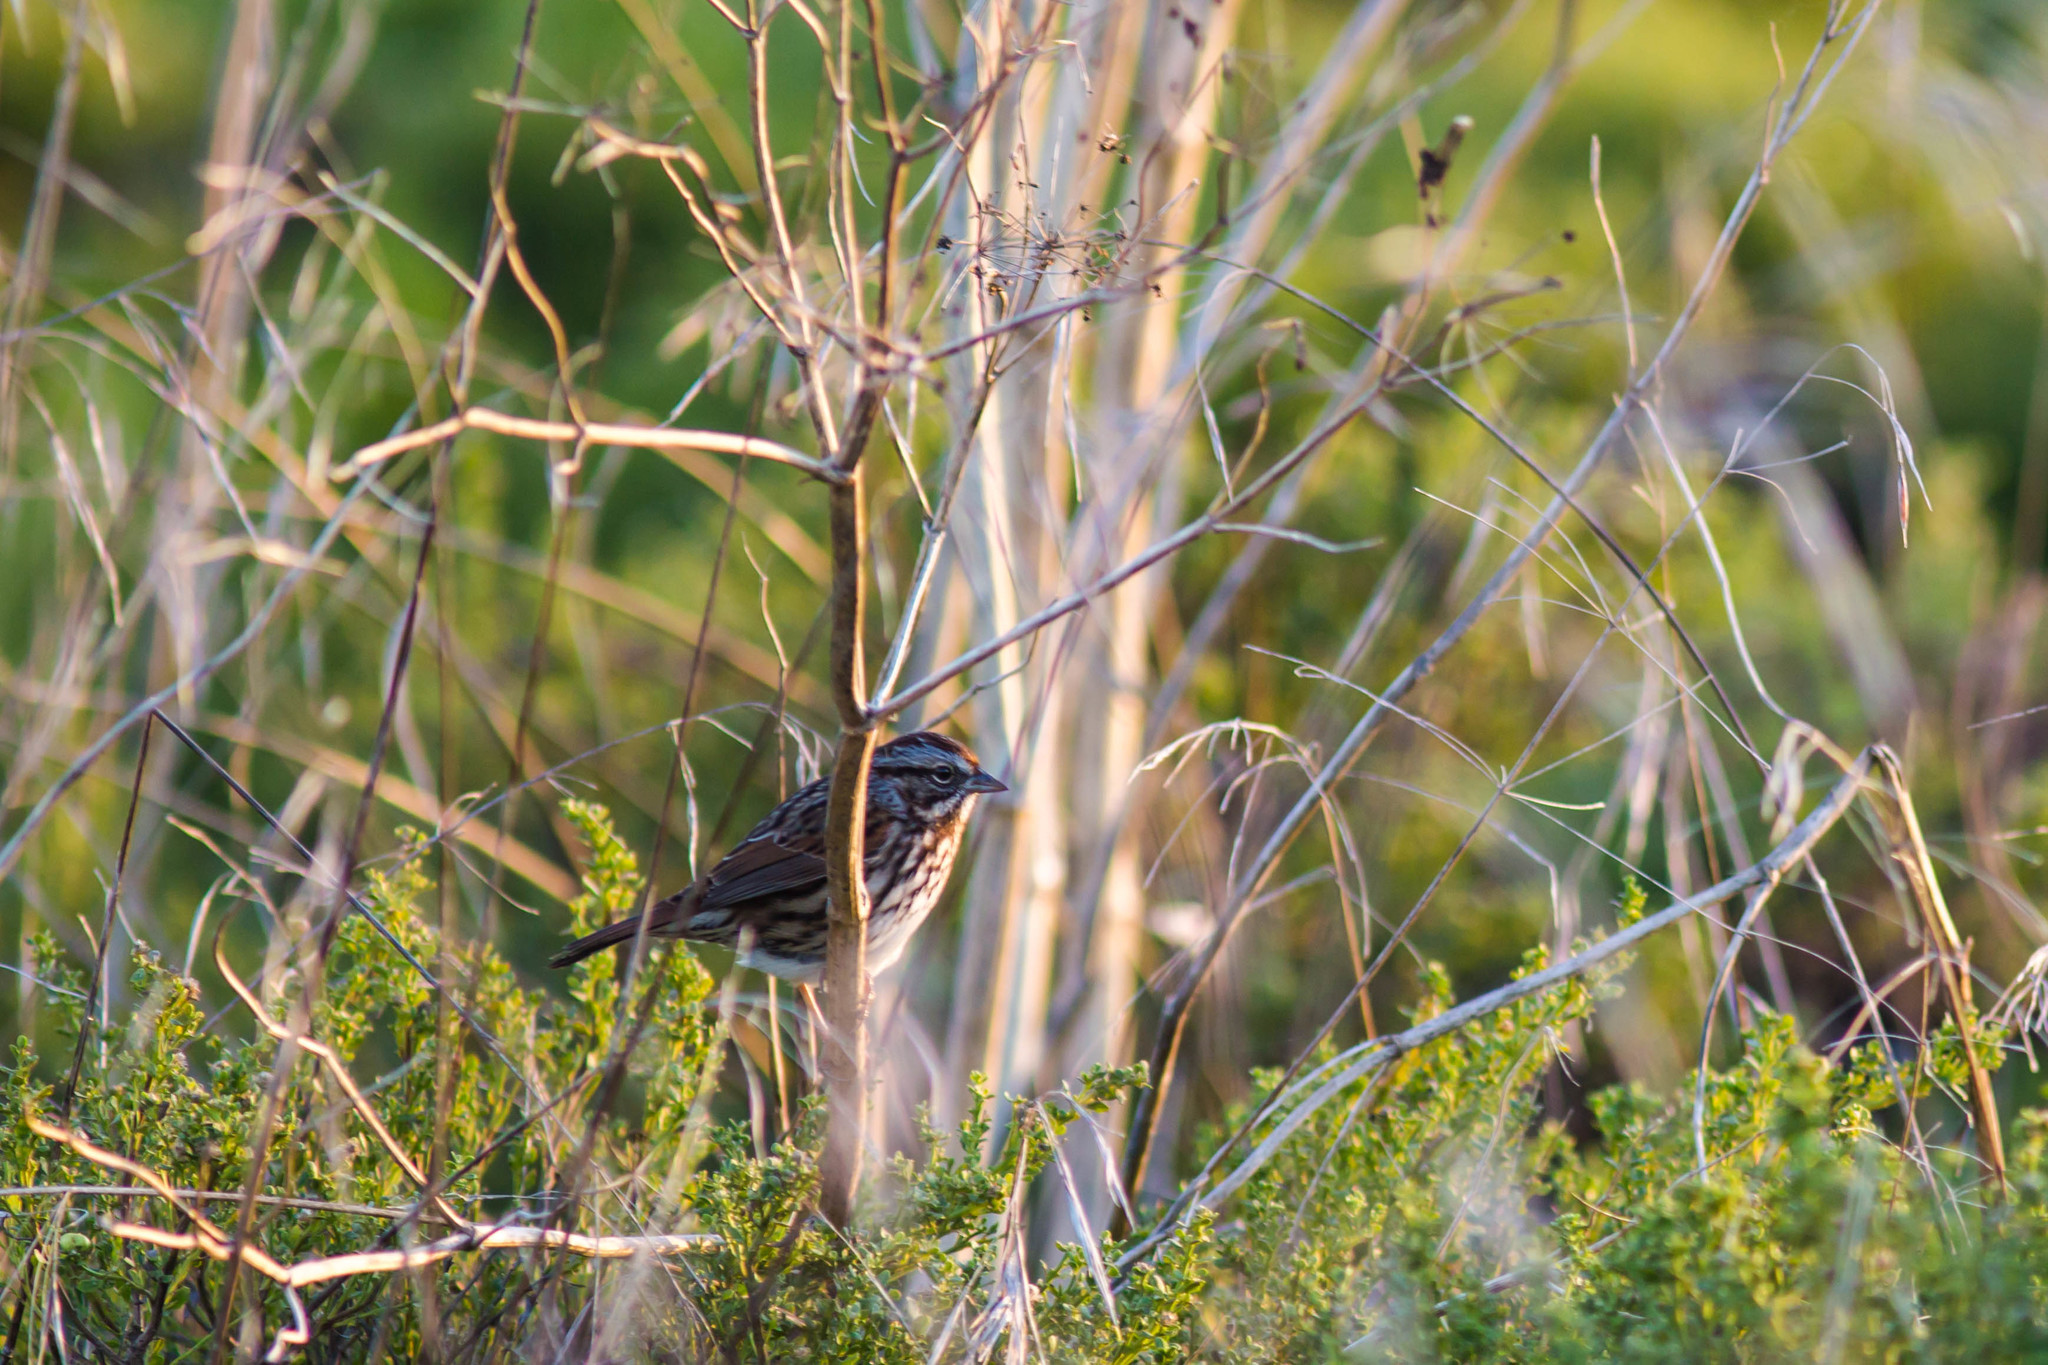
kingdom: Animalia
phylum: Chordata
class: Aves
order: Passeriformes
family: Passerellidae
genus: Melospiza
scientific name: Melospiza melodia
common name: Song sparrow
